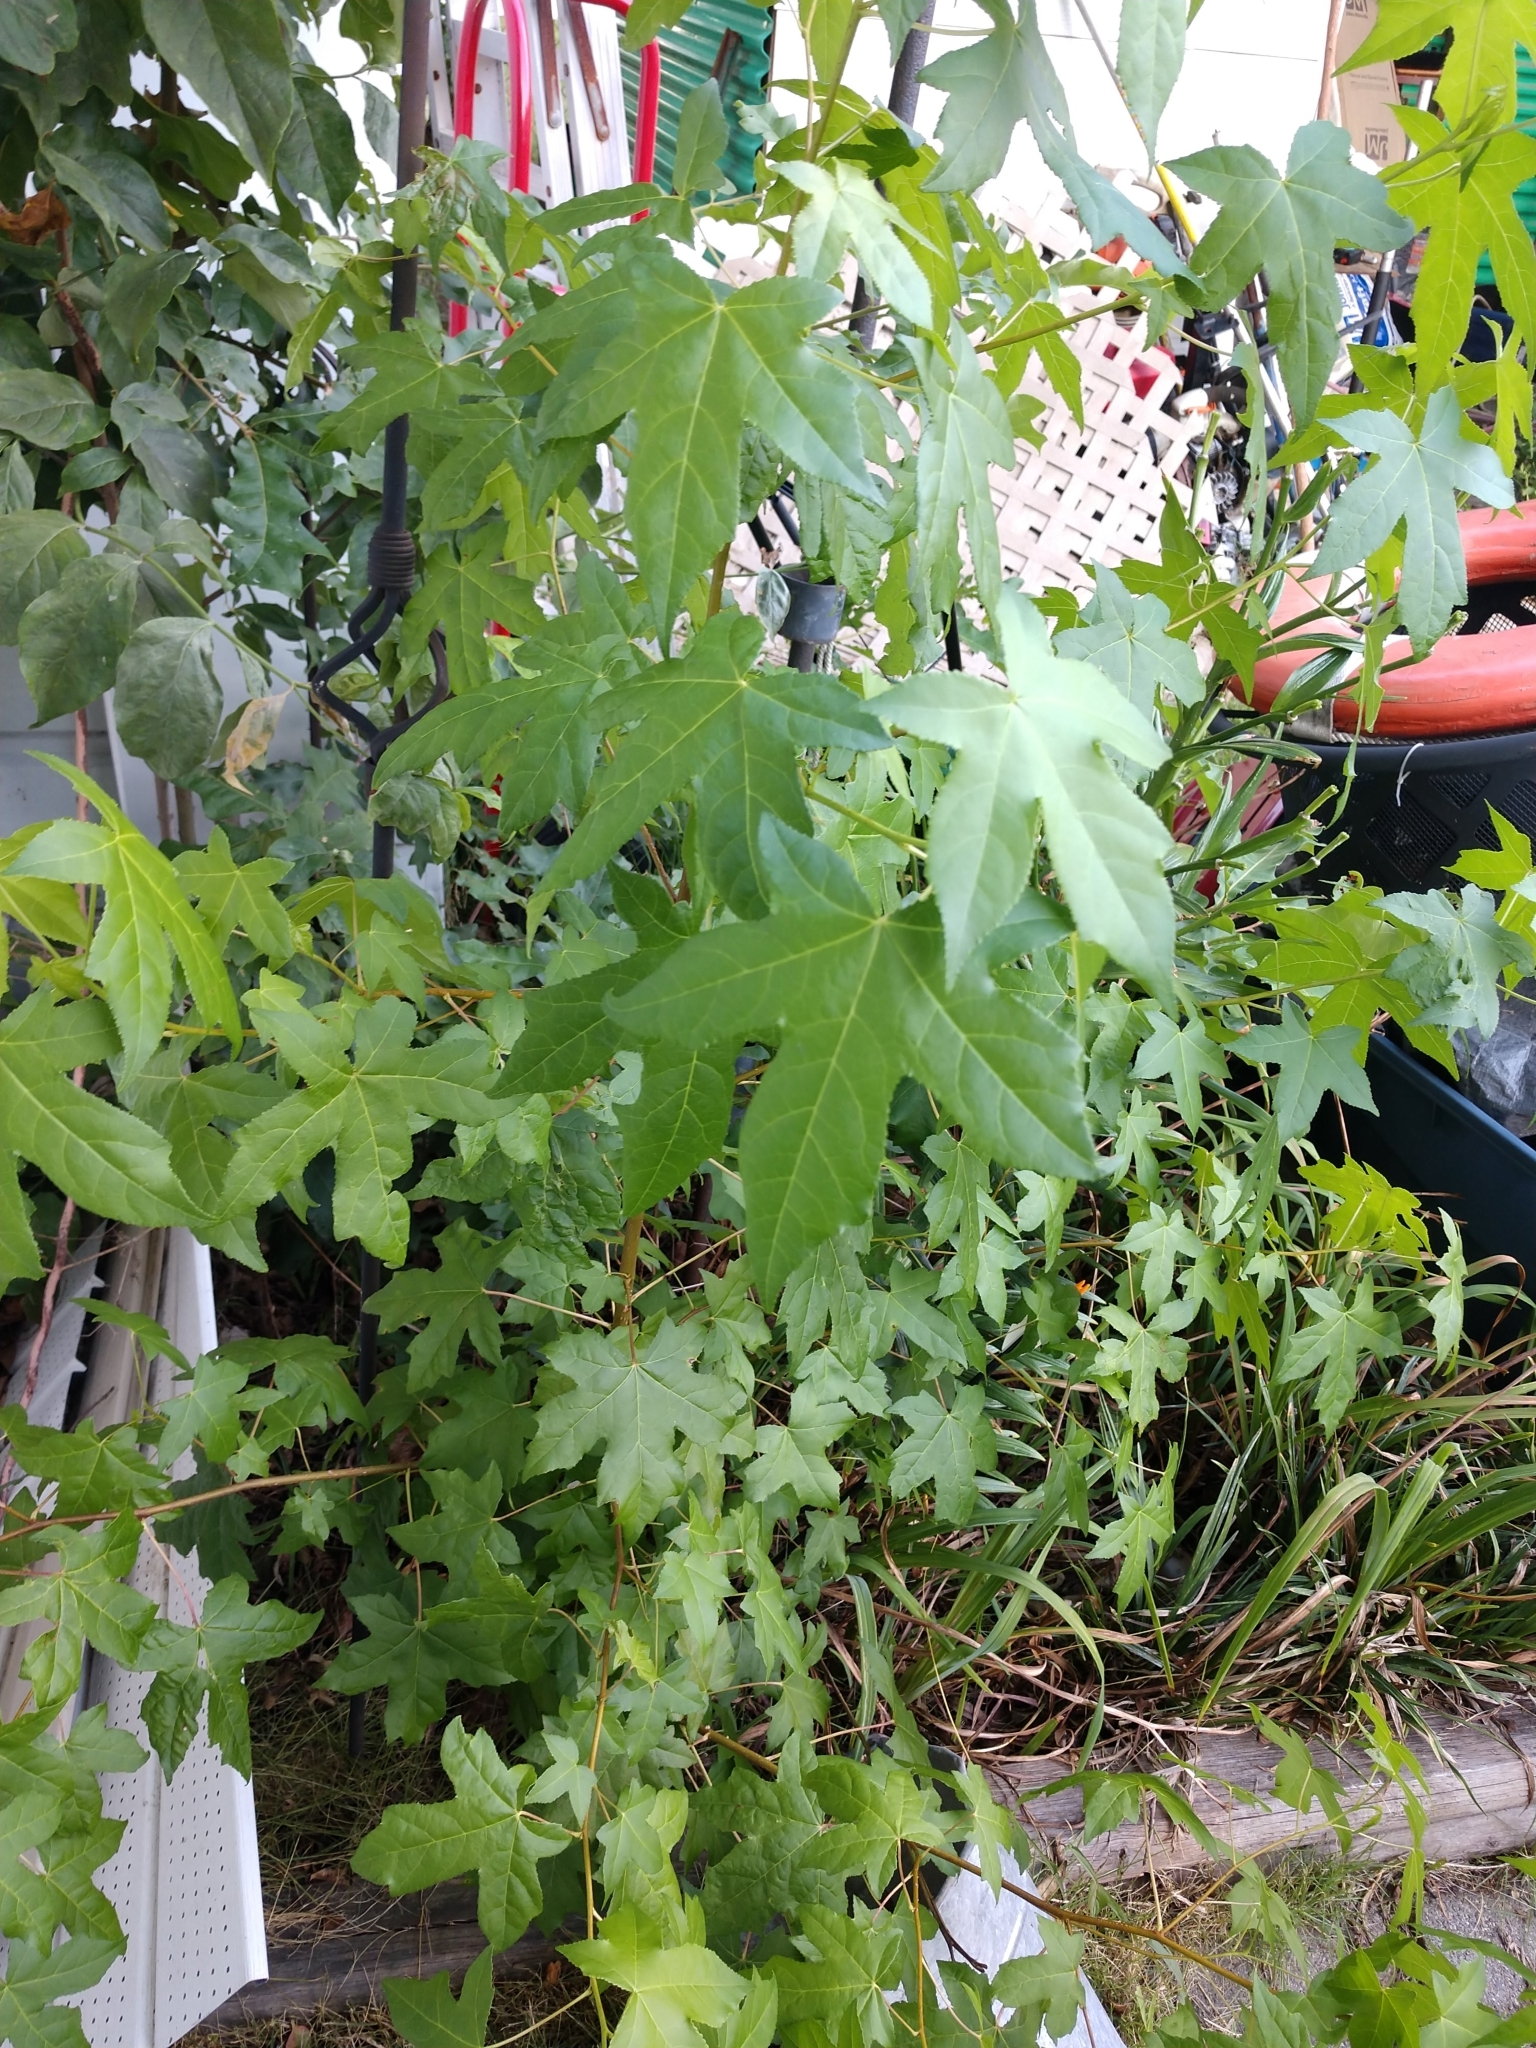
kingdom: Plantae
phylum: Tracheophyta
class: Magnoliopsida
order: Saxifragales
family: Altingiaceae
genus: Liquidambar
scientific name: Liquidambar styraciflua
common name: Sweet gum
